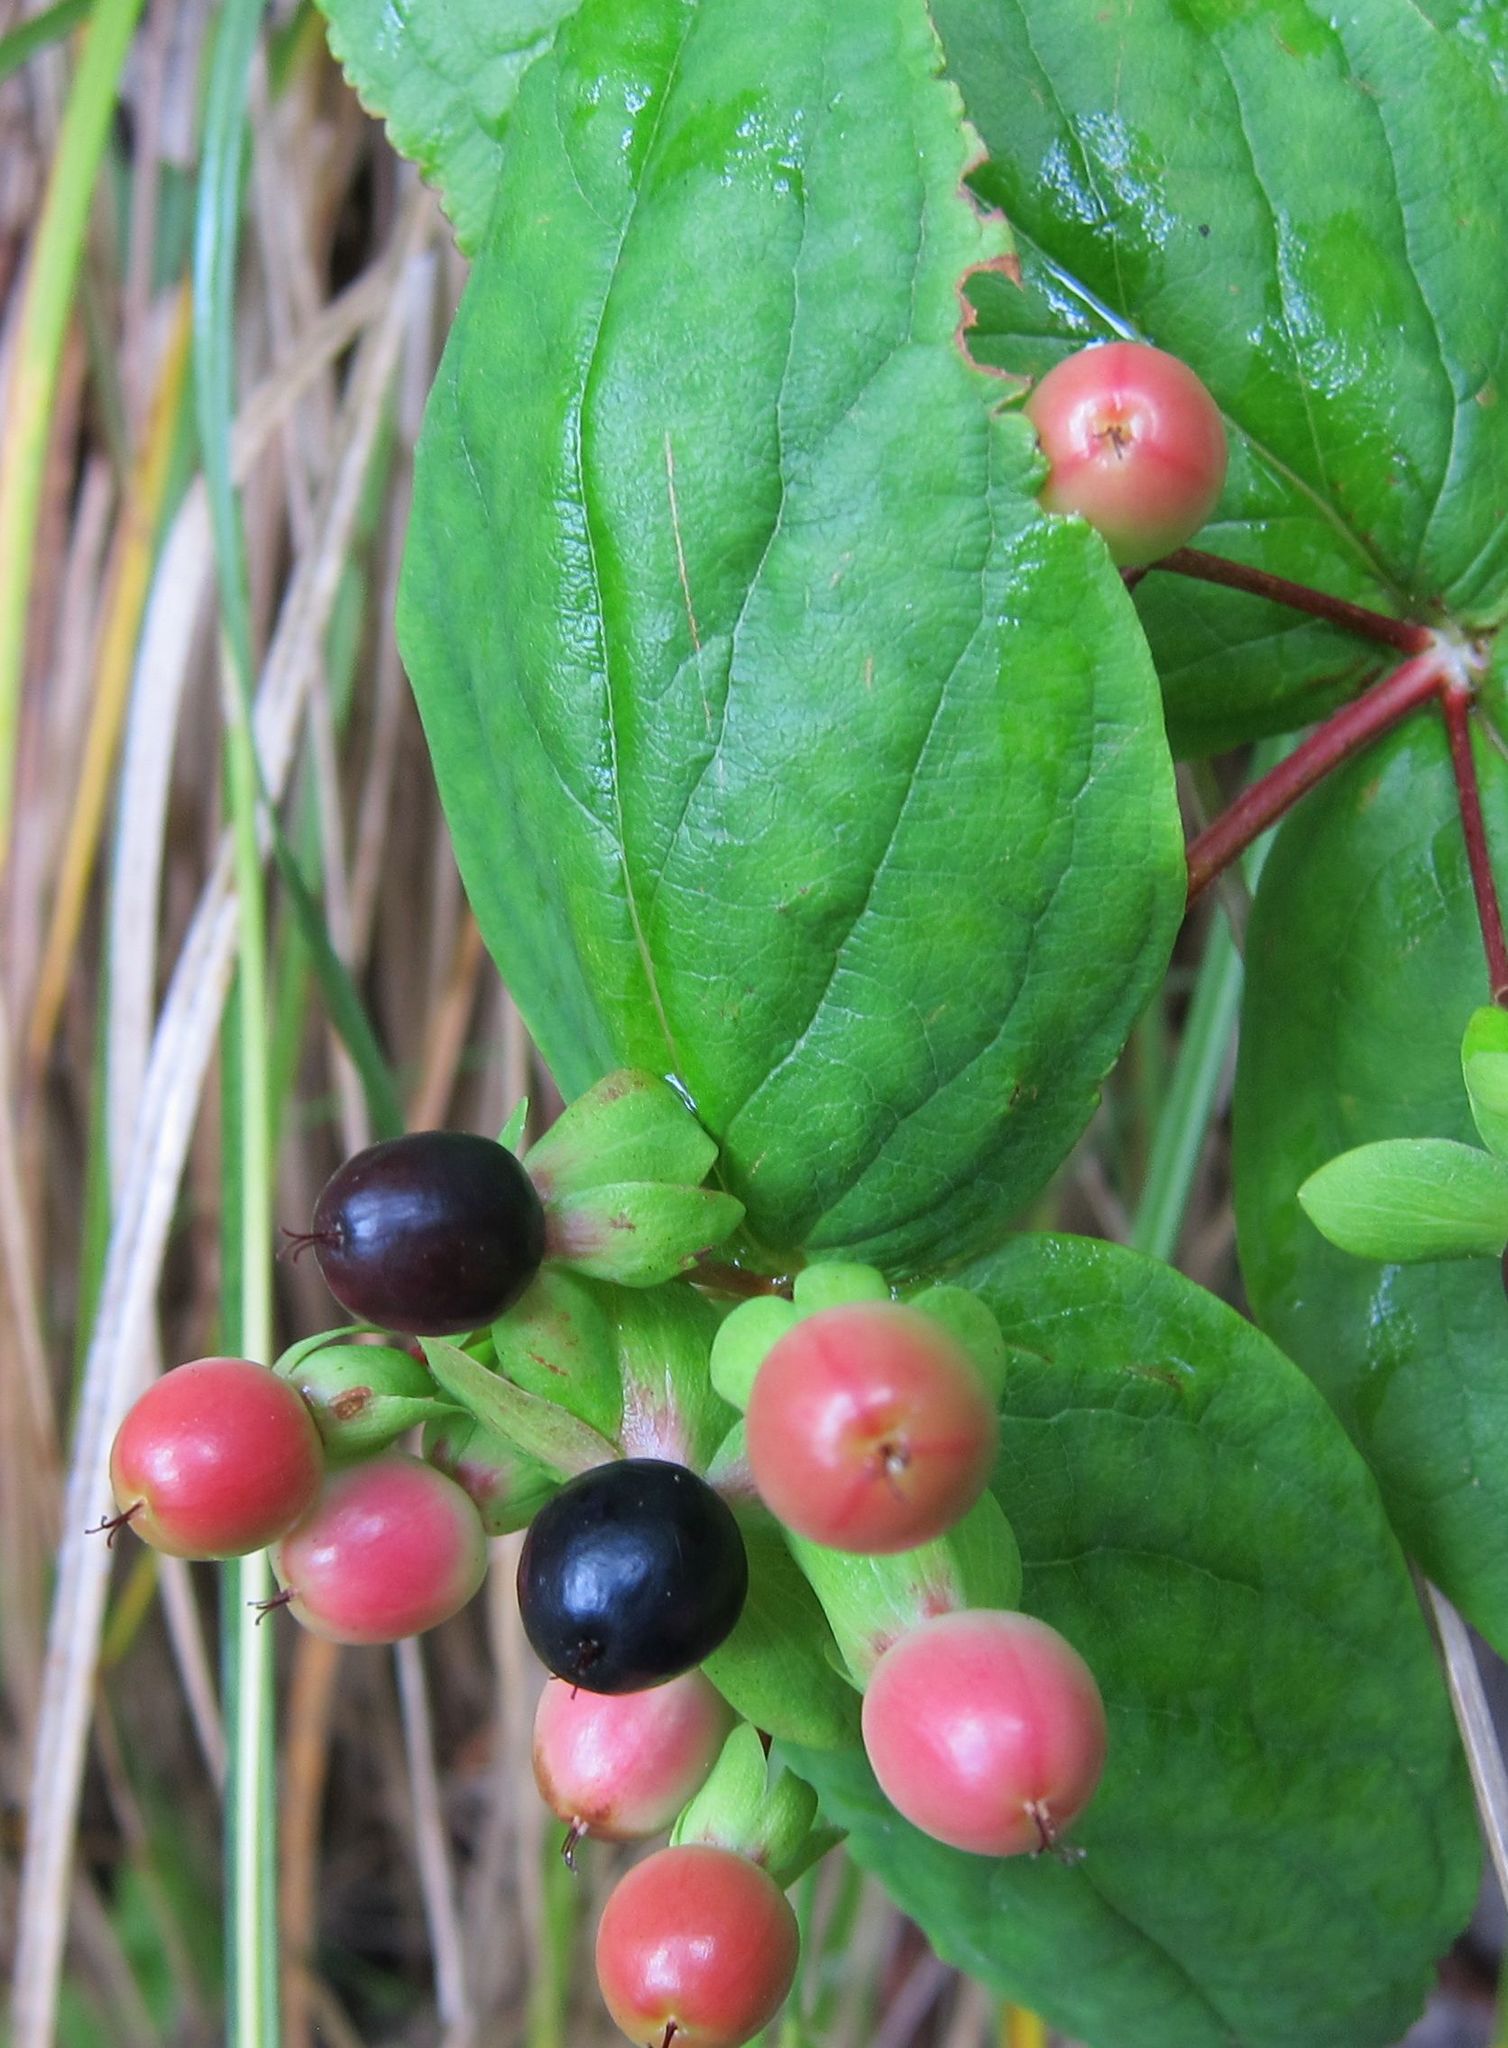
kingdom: Plantae
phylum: Tracheophyta
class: Magnoliopsida
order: Malpighiales
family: Hypericaceae
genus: Hypericum
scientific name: Hypericum androsaemum
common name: Sweet-amber
